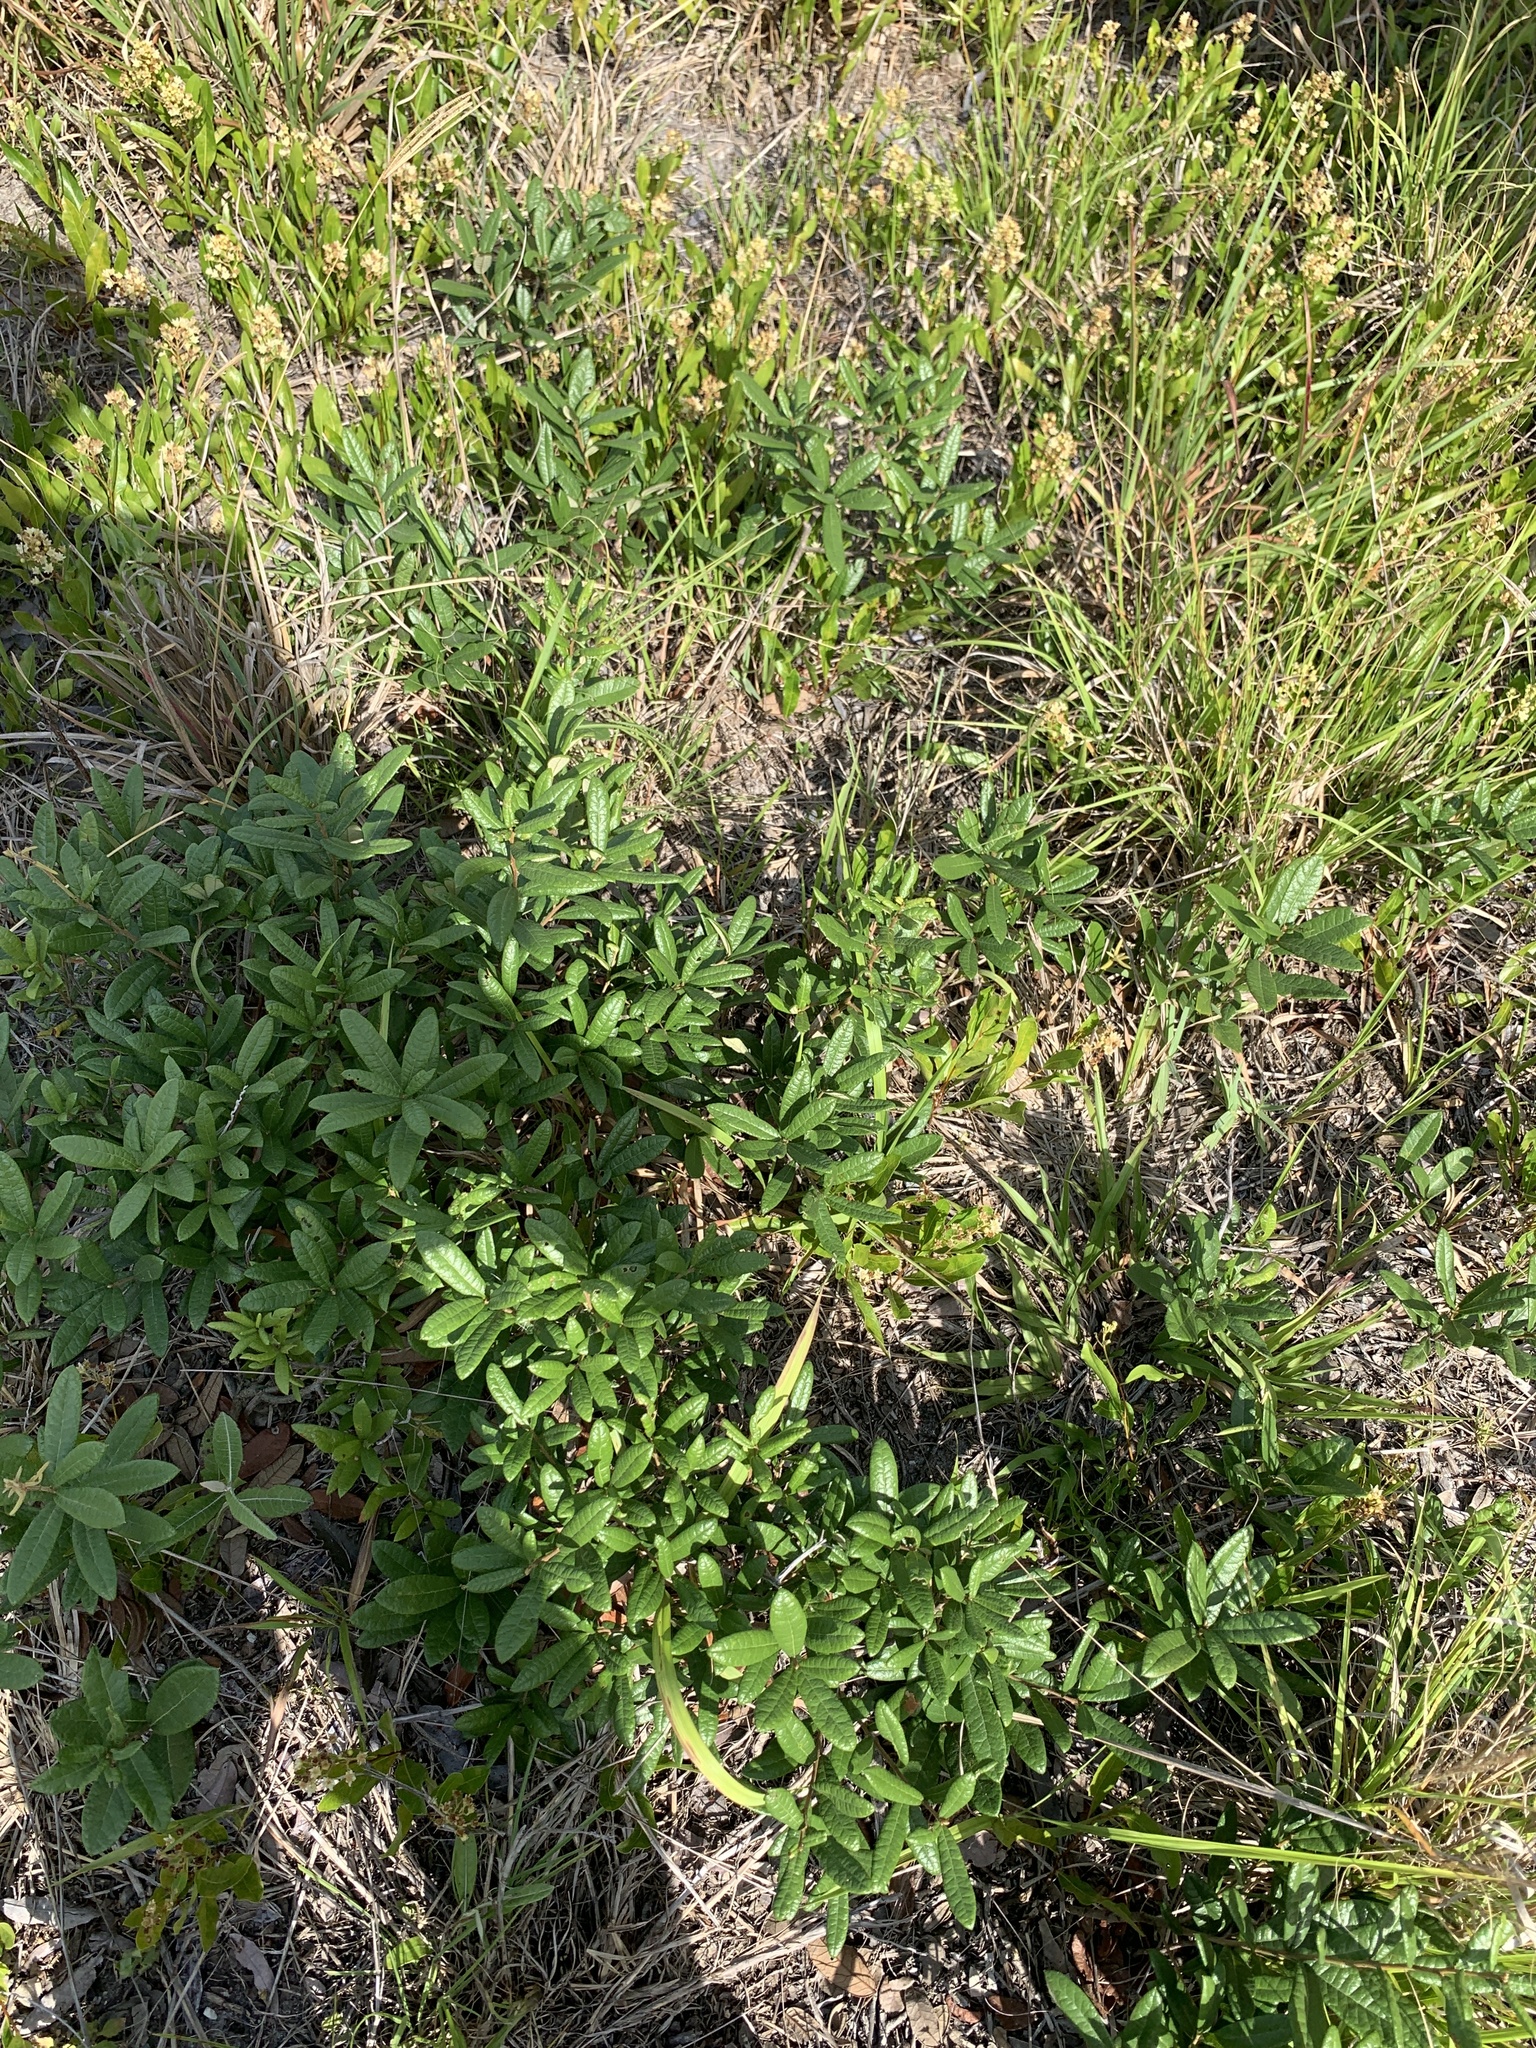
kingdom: Plantae
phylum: Tracheophyta
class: Magnoliopsida
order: Fagales
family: Fagaceae
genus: Quercus
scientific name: Quercus geminata
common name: Sand live oak
